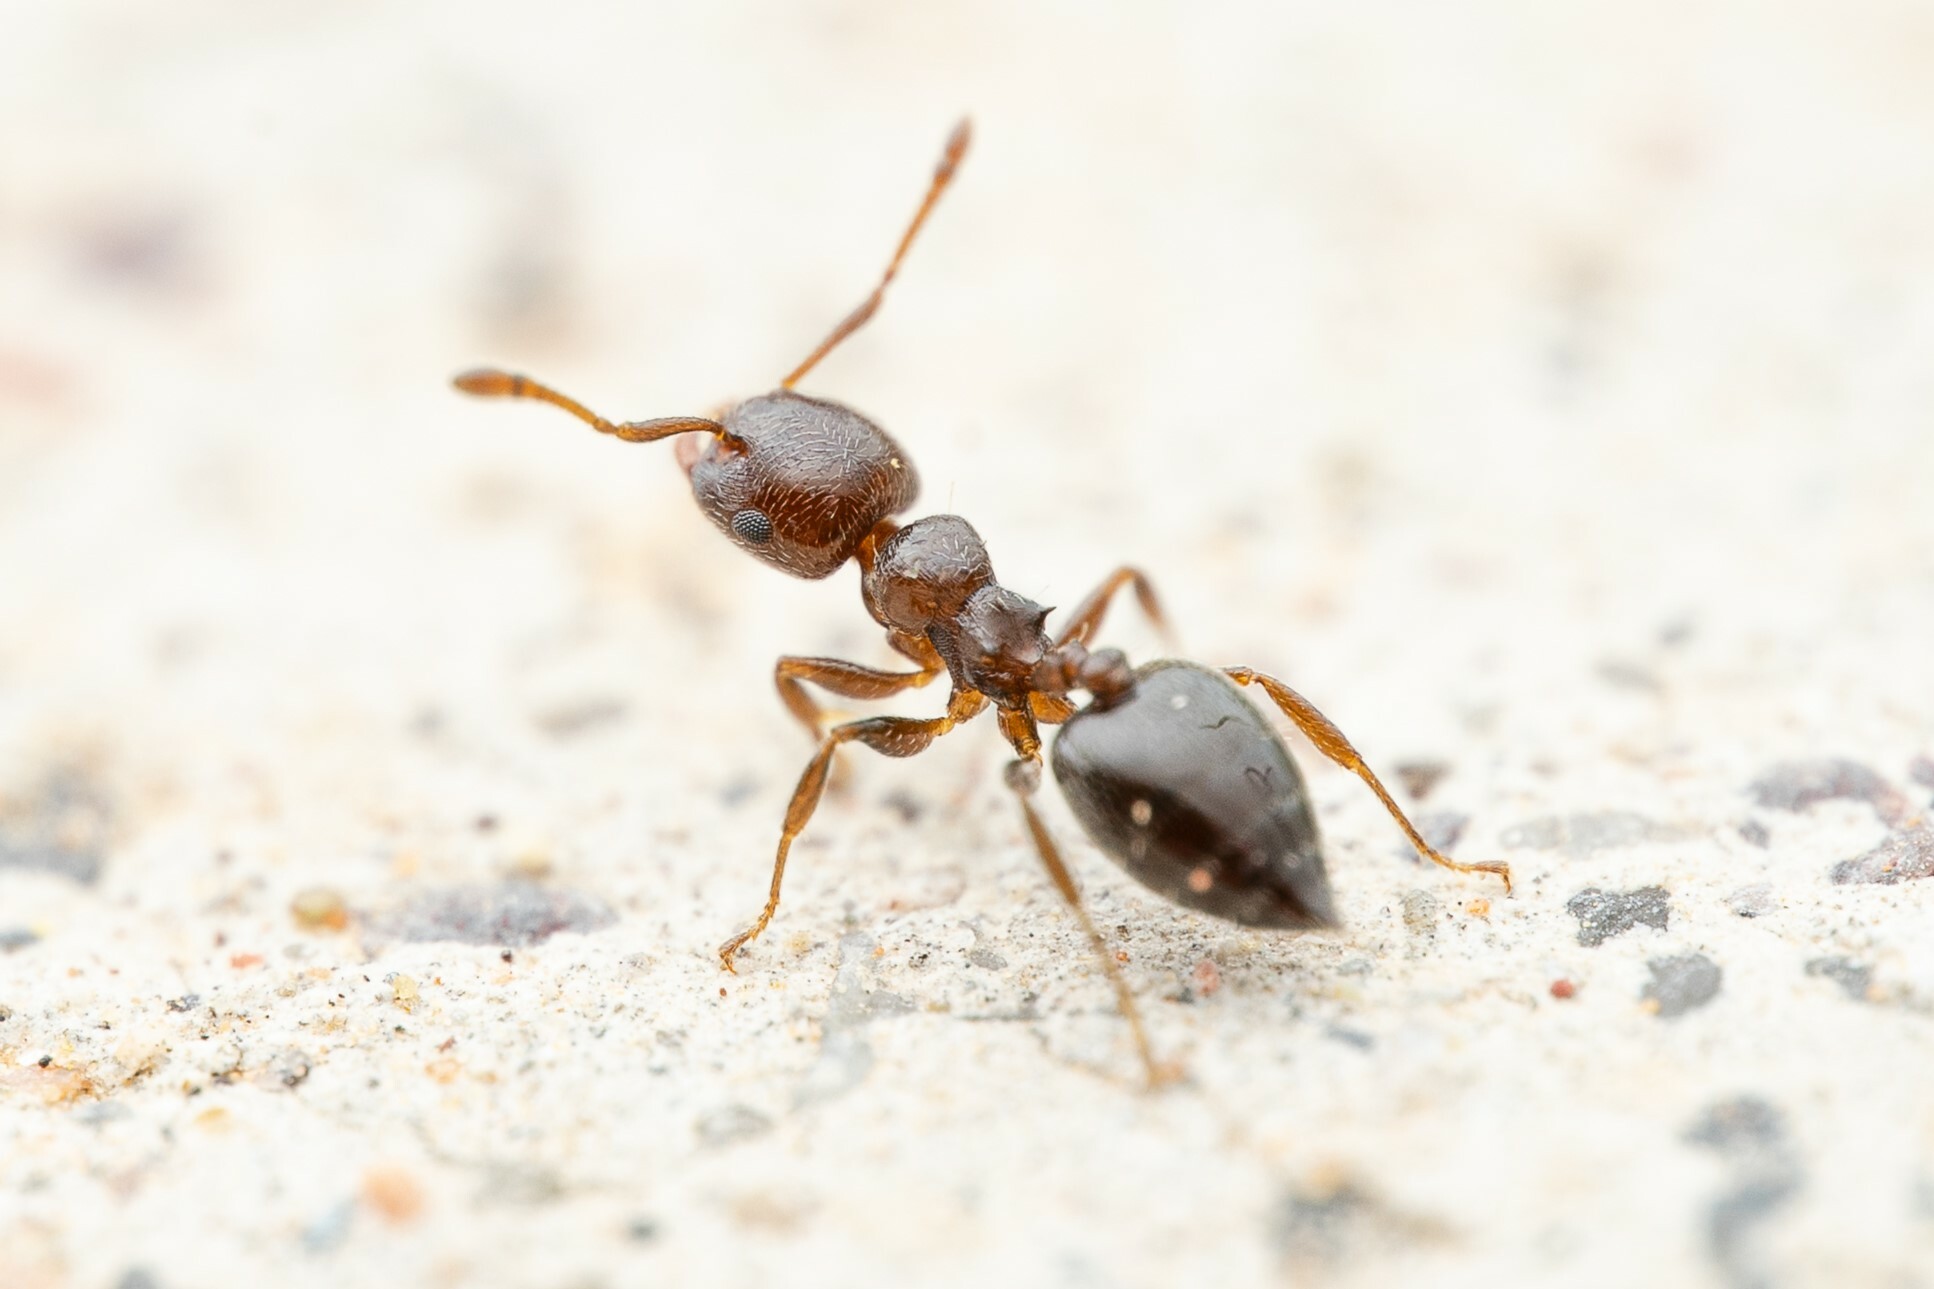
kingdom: Animalia
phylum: Arthropoda
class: Insecta
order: Hymenoptera
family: Formicidae
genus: Crematogaster
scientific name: Crematogaster torosa
